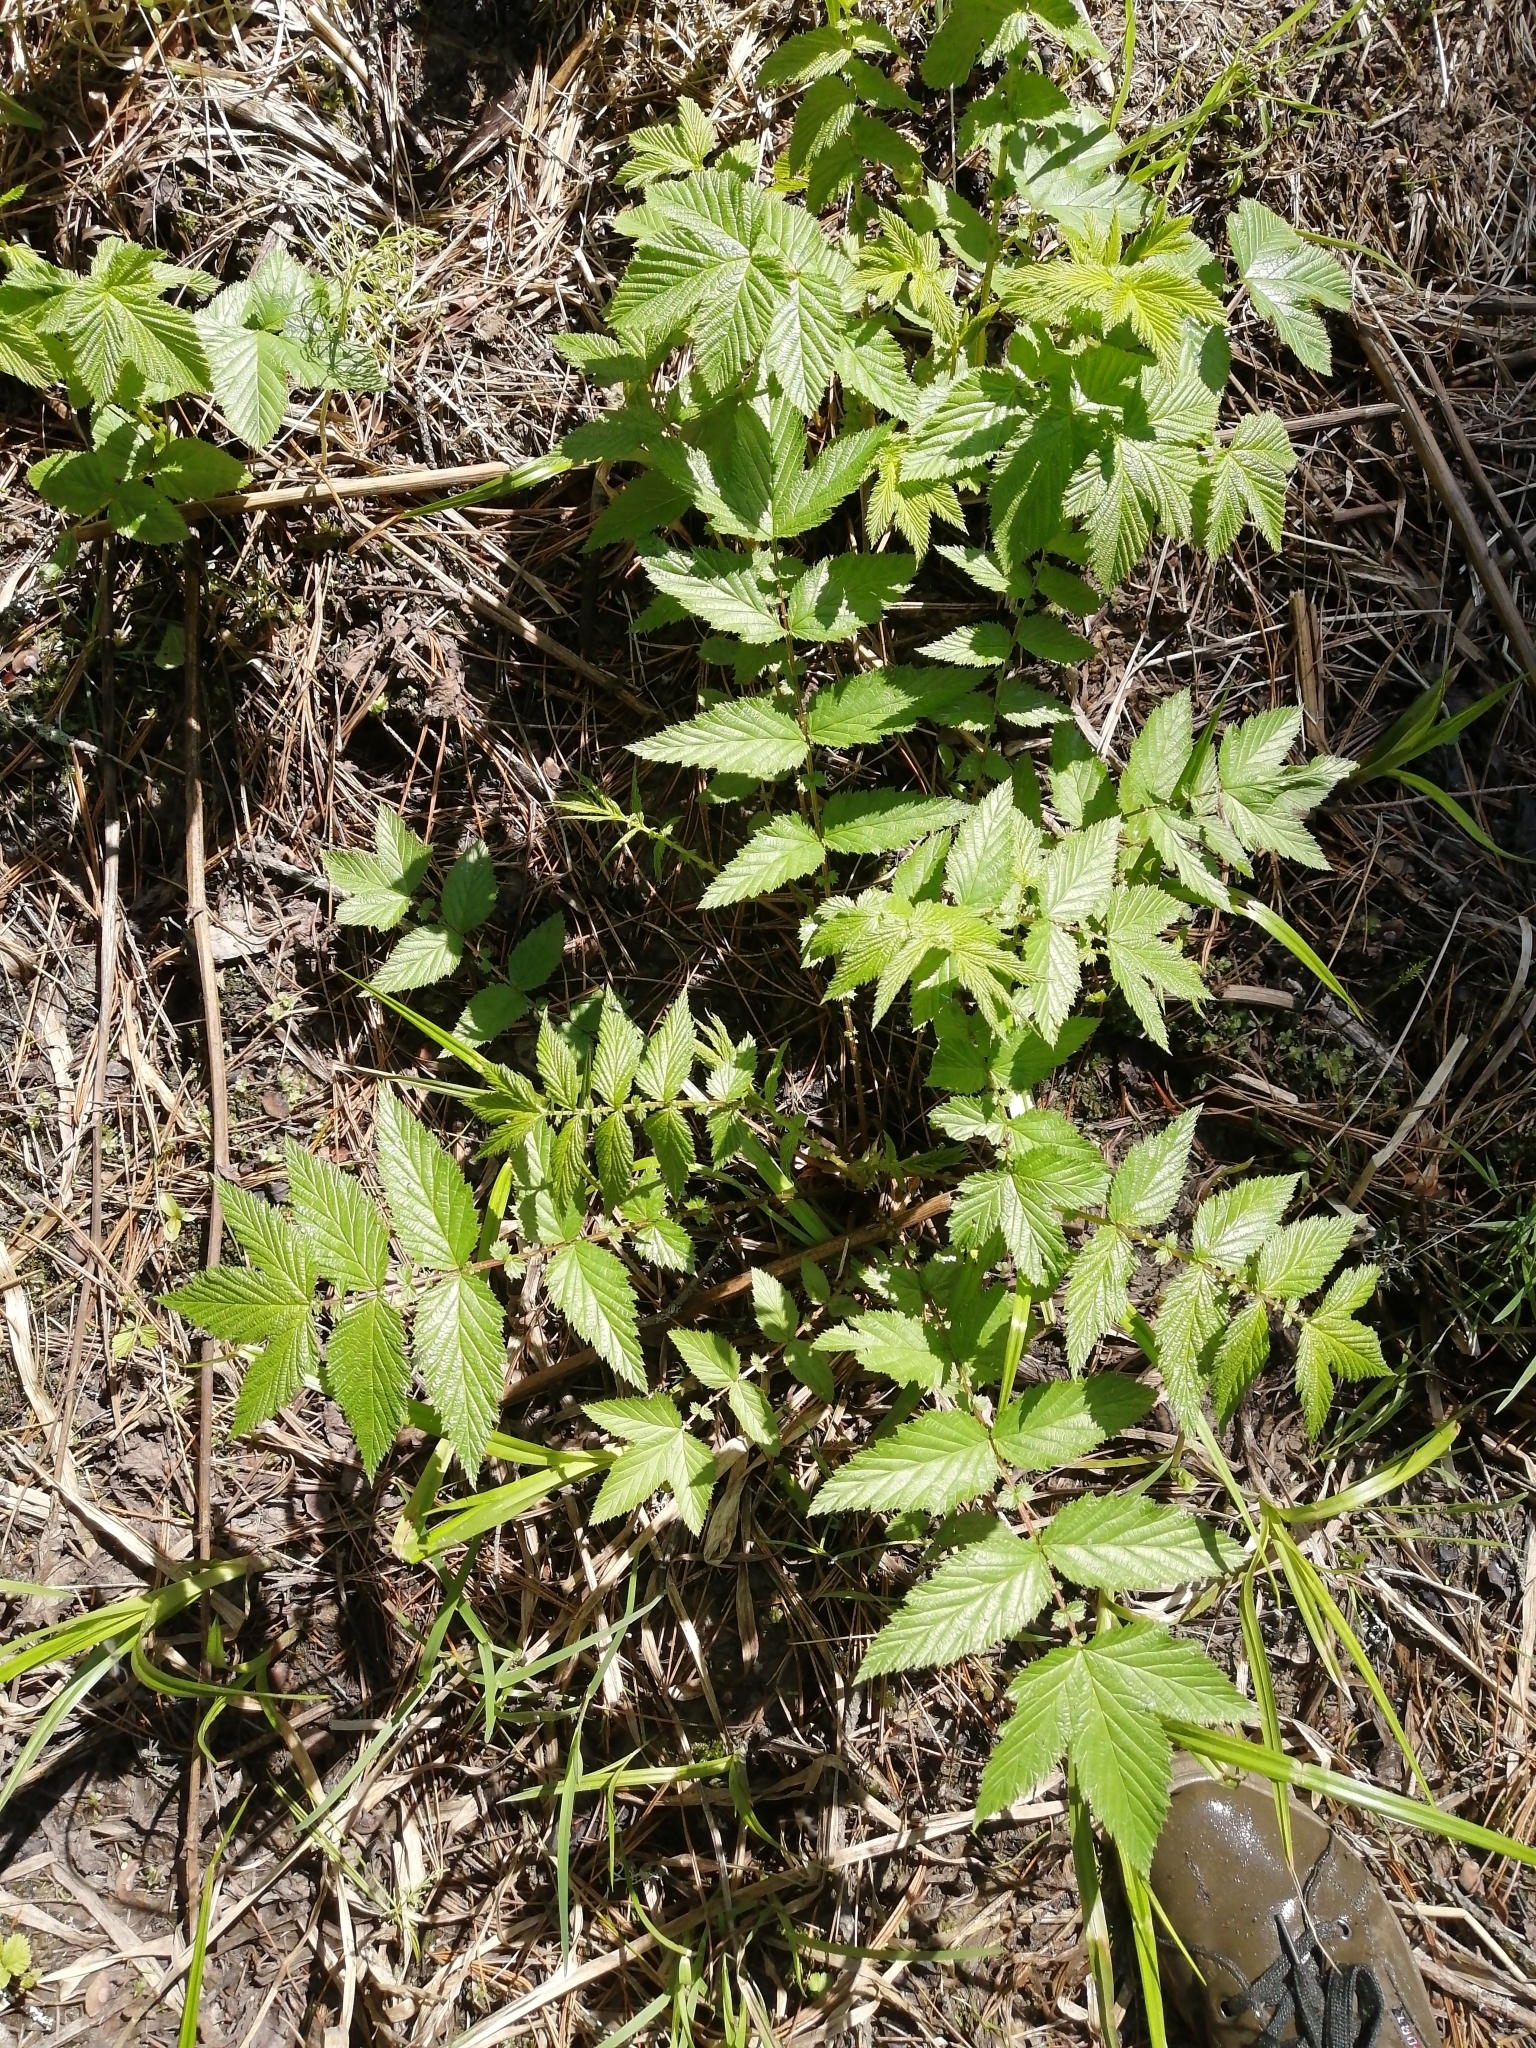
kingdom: Plantae
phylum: Tracheophyta
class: Magnoliopsida
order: Rosales
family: Rosaceae
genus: Filipendula
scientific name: Filipendula ulmaria
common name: Meadowsweet
